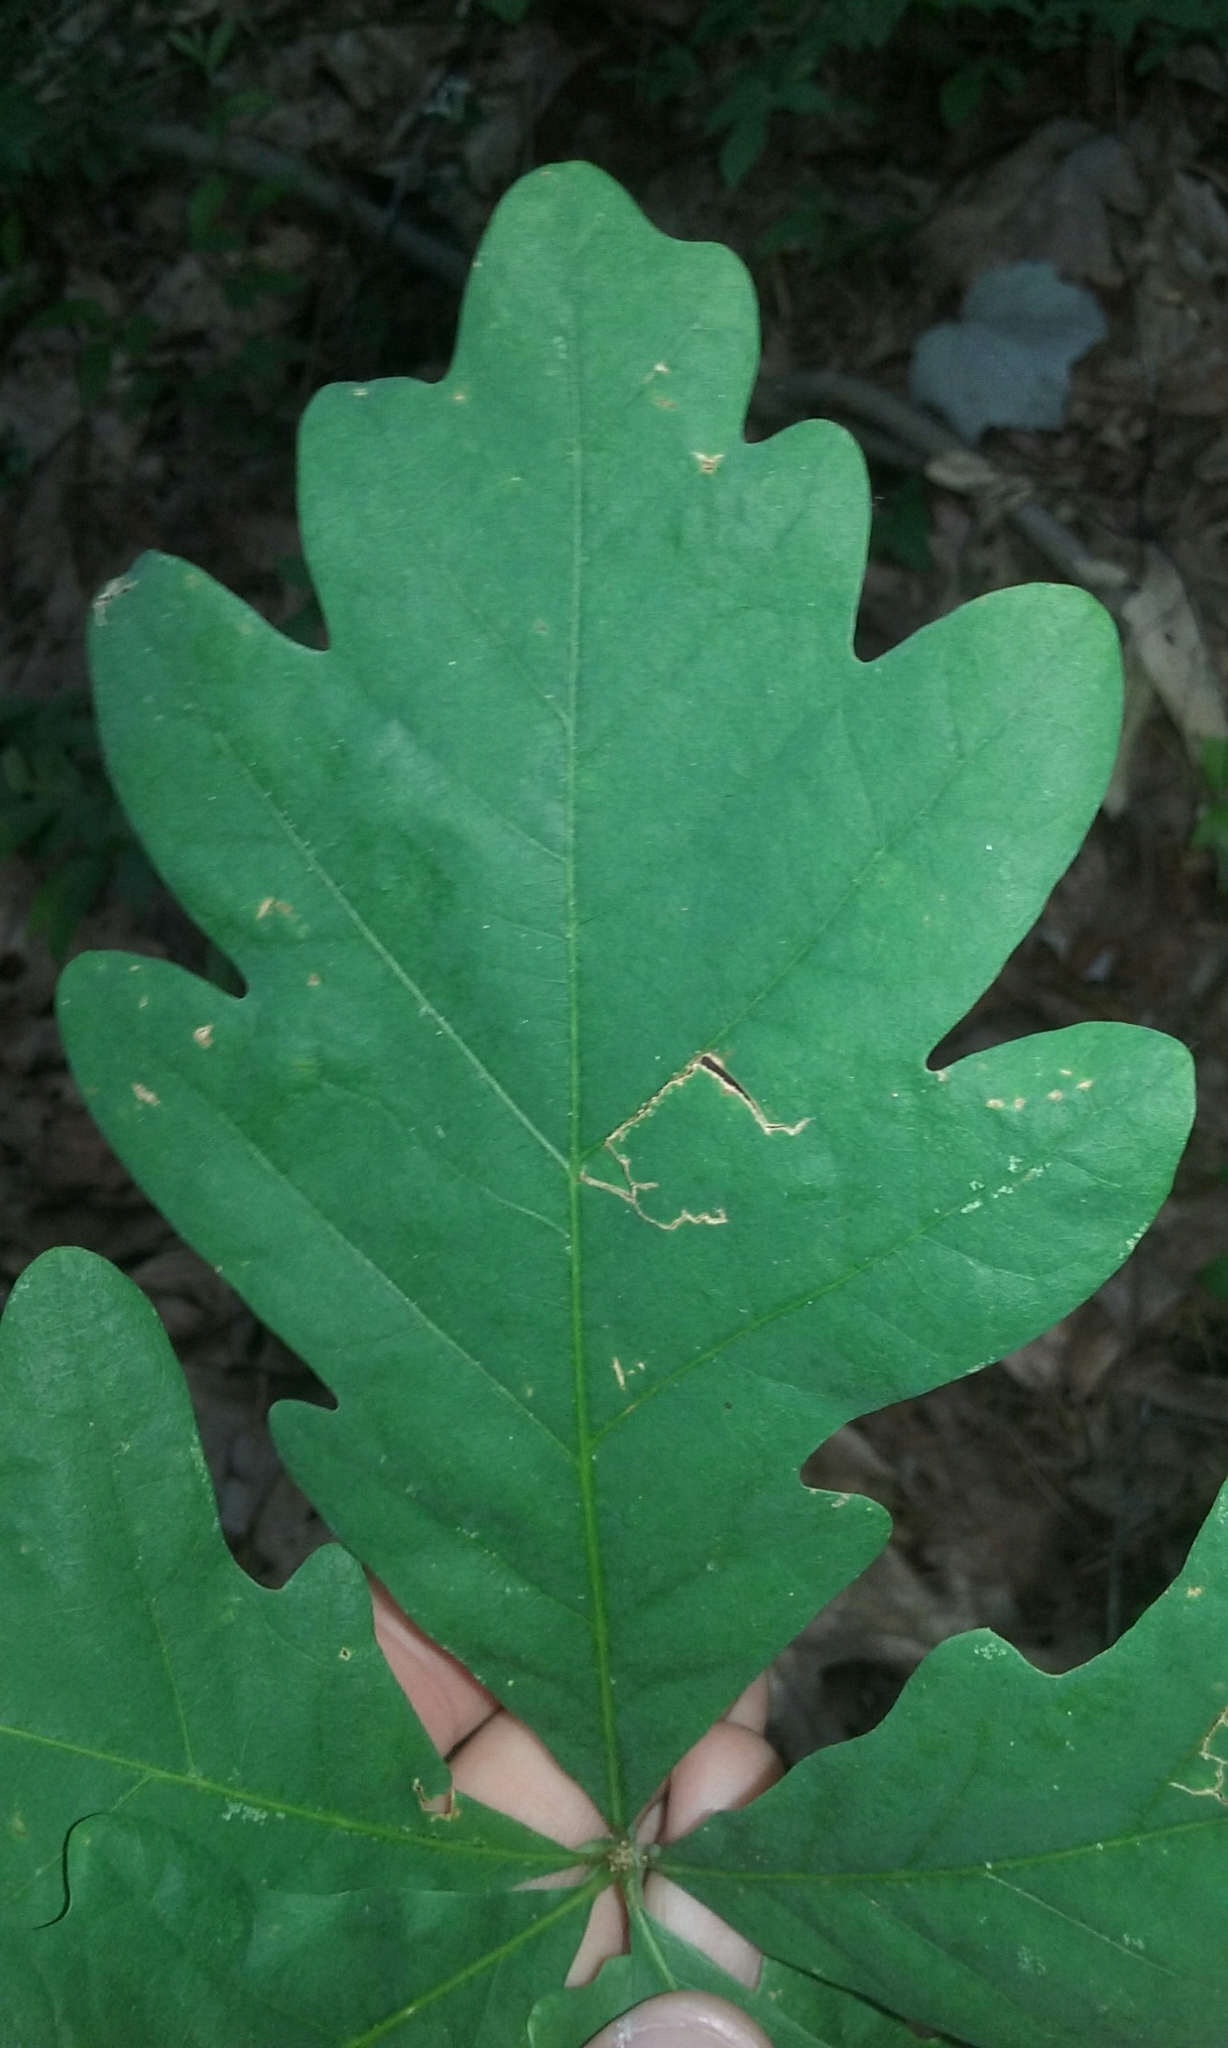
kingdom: Plantae
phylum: Tracheophyta
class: Magnoliopsida
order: Fagales
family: Fagaceae
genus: Quercus
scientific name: Quercus alba
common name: White oak
